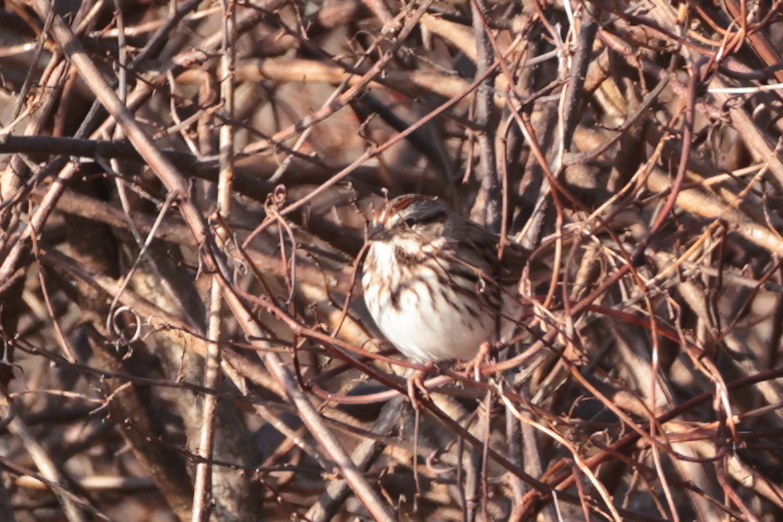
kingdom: Animalia
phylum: Chordata
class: Aves
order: Passeriformes
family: Passerellidae
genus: Melospiza
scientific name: Melospiza melodia
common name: Song sparrow
